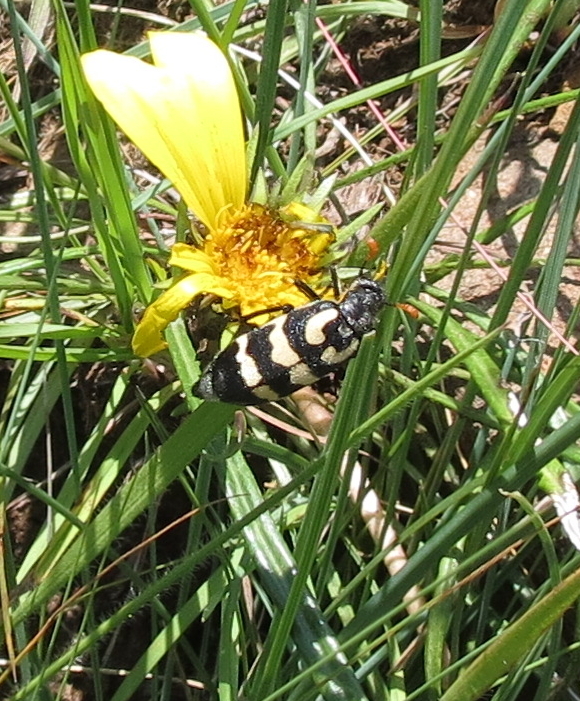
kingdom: Animalia
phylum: Arthropoda
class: Insecta
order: Coleoptera
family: Meloidae
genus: Meloe
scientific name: Meloe lunata
